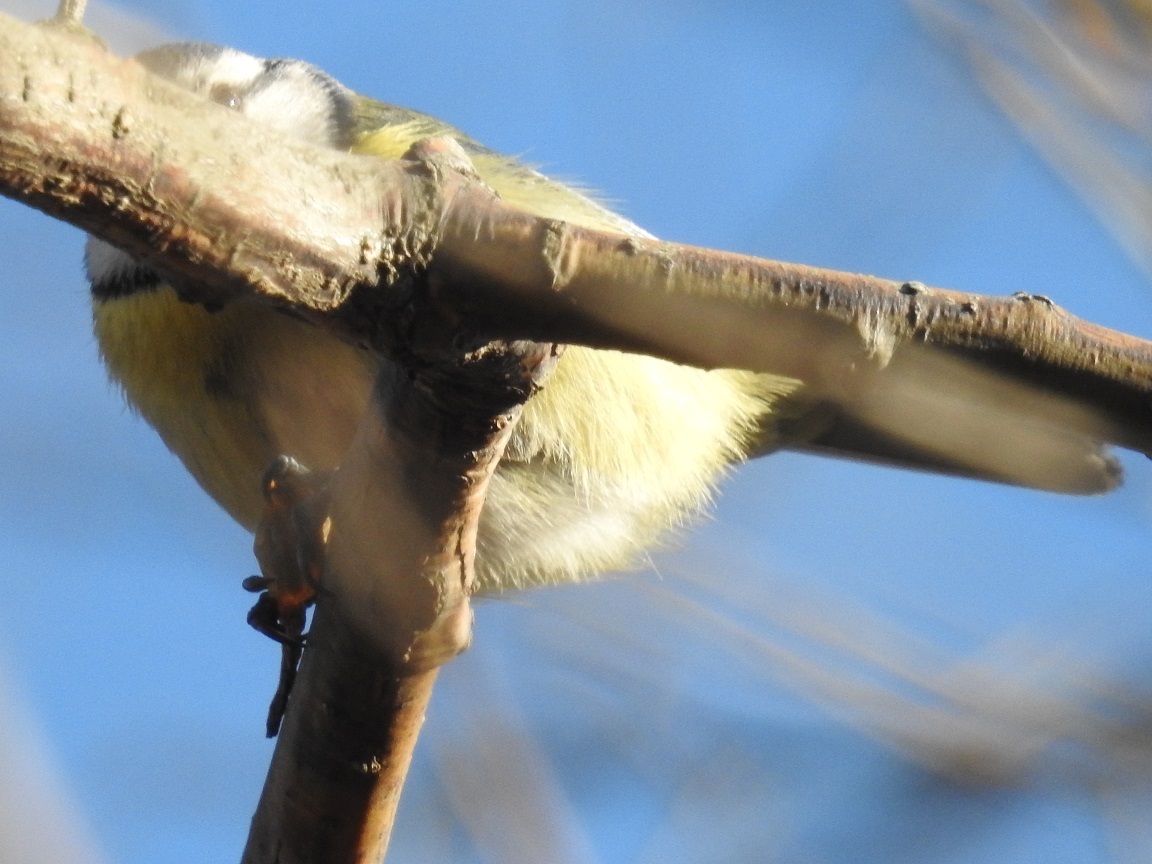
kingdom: Animalia
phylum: Chordata
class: Aves
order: Passeriformes
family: Paridae
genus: Cyanistes
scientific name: Cyanistes caeruleus
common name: Eurasian blue tit
